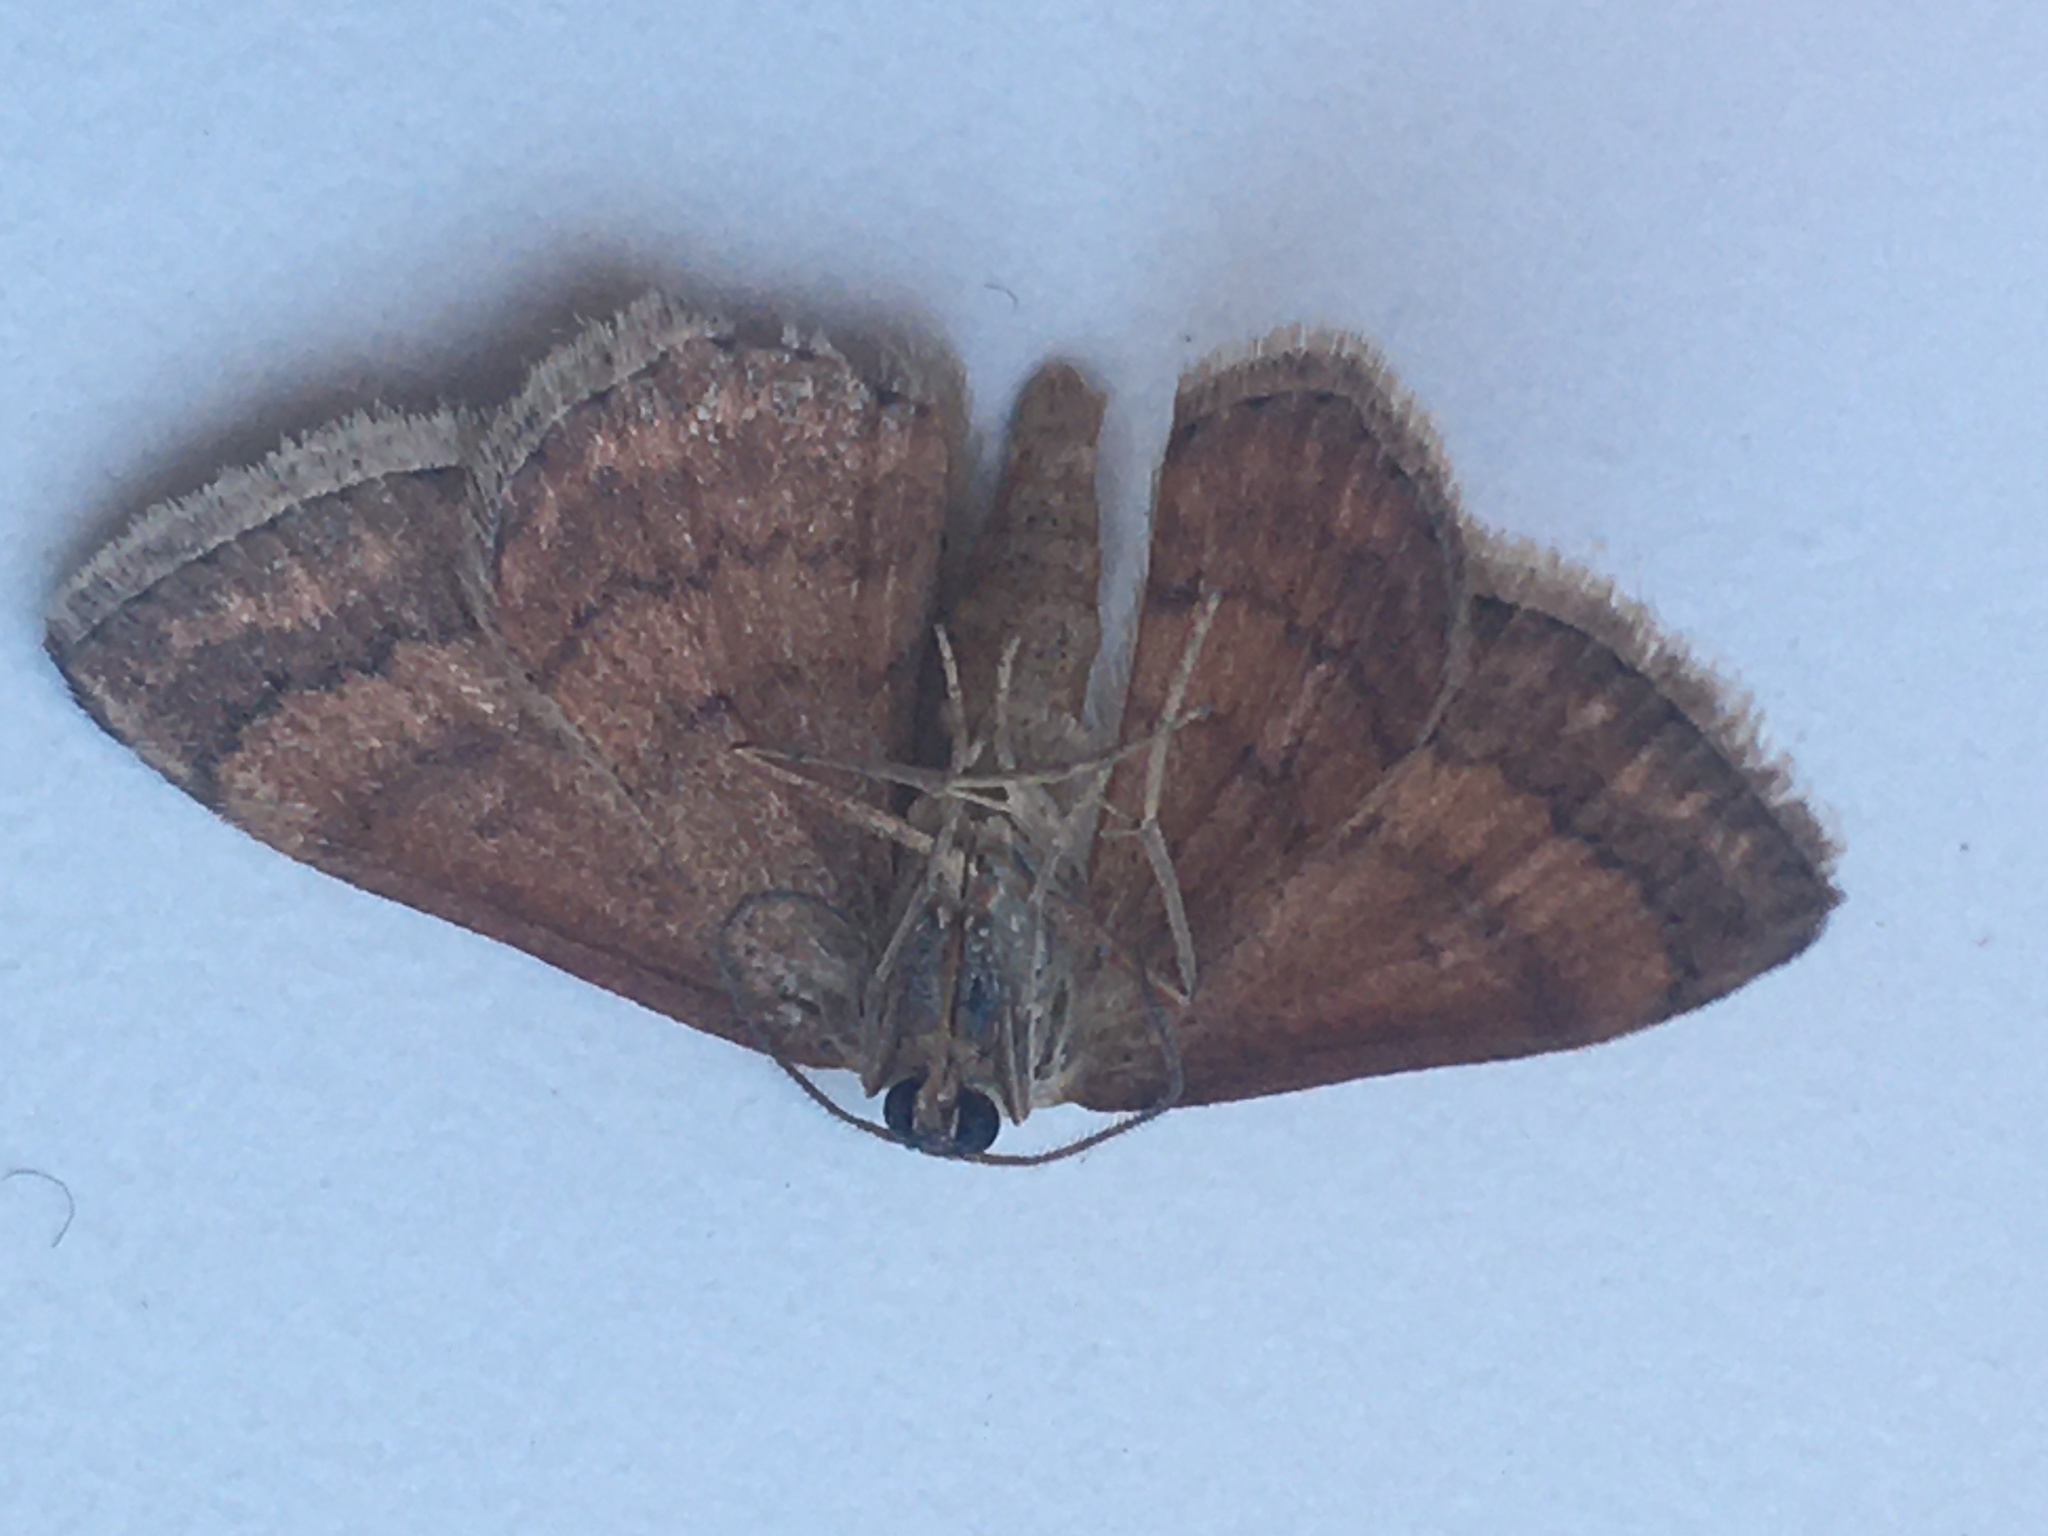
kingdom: Animalia
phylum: Arthropoda
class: Insecta
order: Lepidoptera
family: Geometridae
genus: Scopula
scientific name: Scopula rubiginata
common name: Tawny wave
